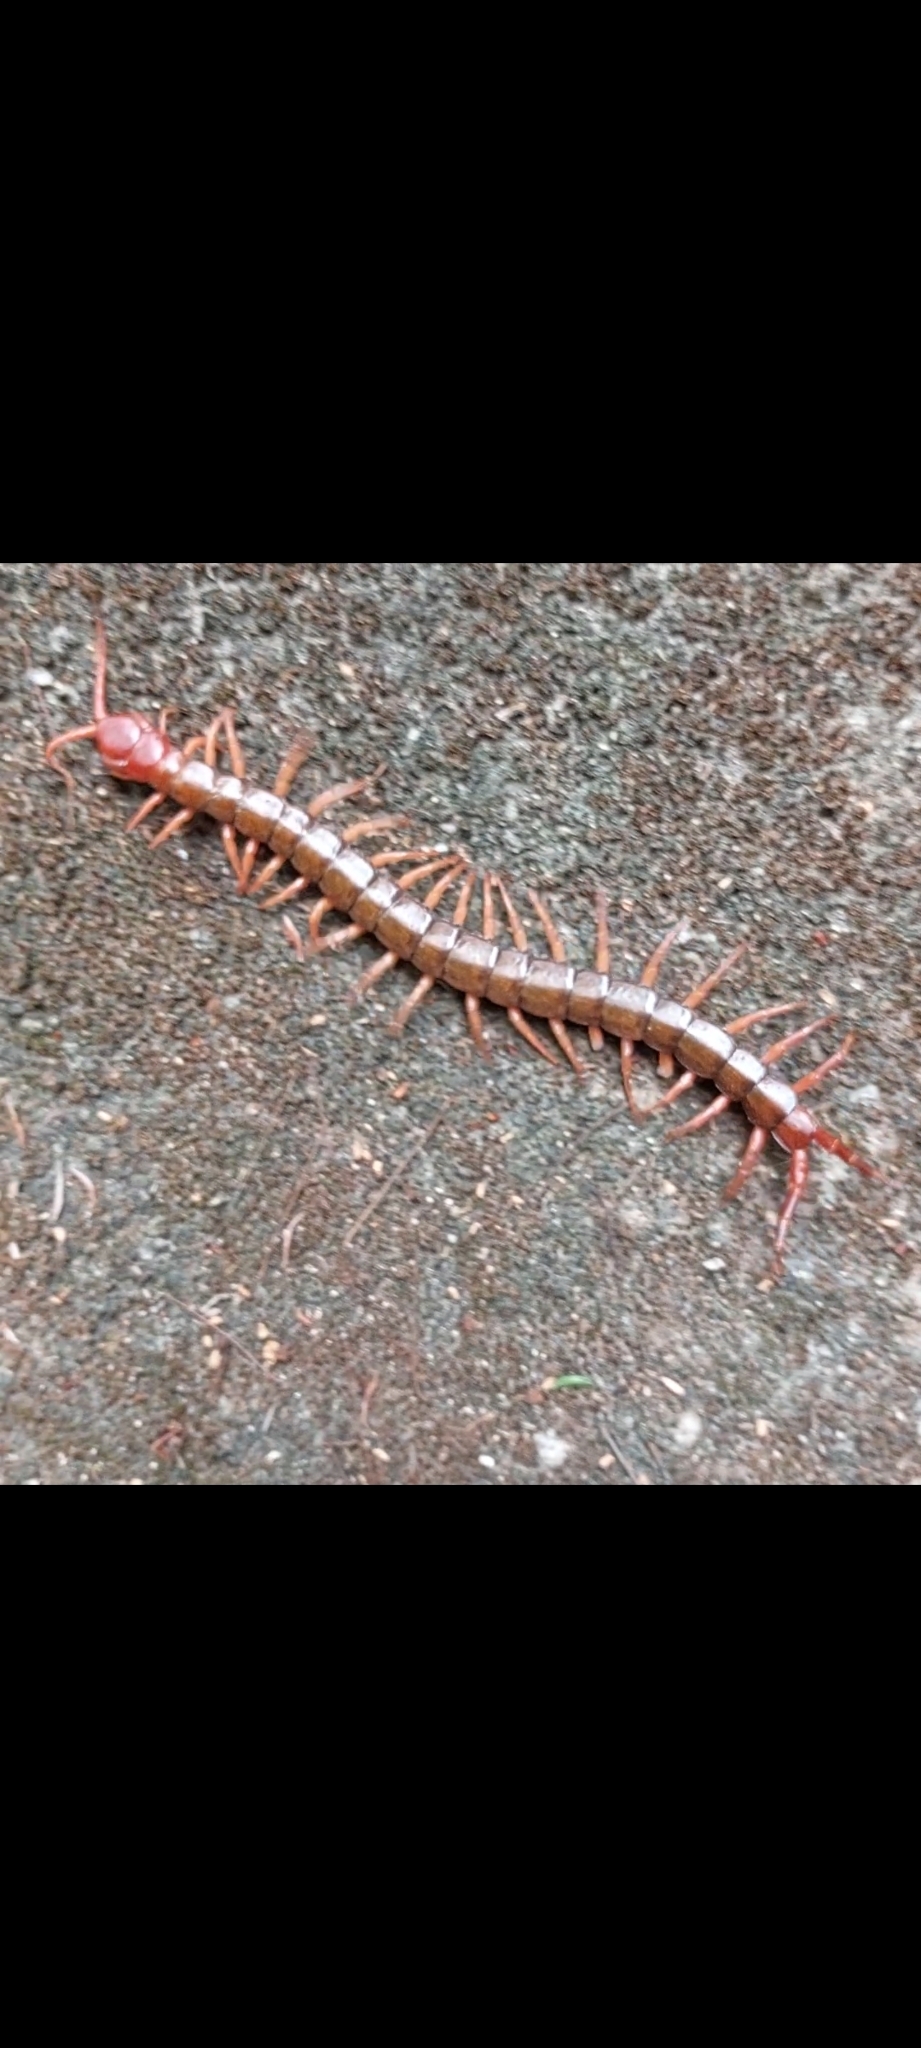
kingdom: Animalia
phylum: Arthropoda
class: Chilopoda
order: Scolopendromorpha
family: Scolopendridae
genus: Scolopendra
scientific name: Scolopendra multidens
